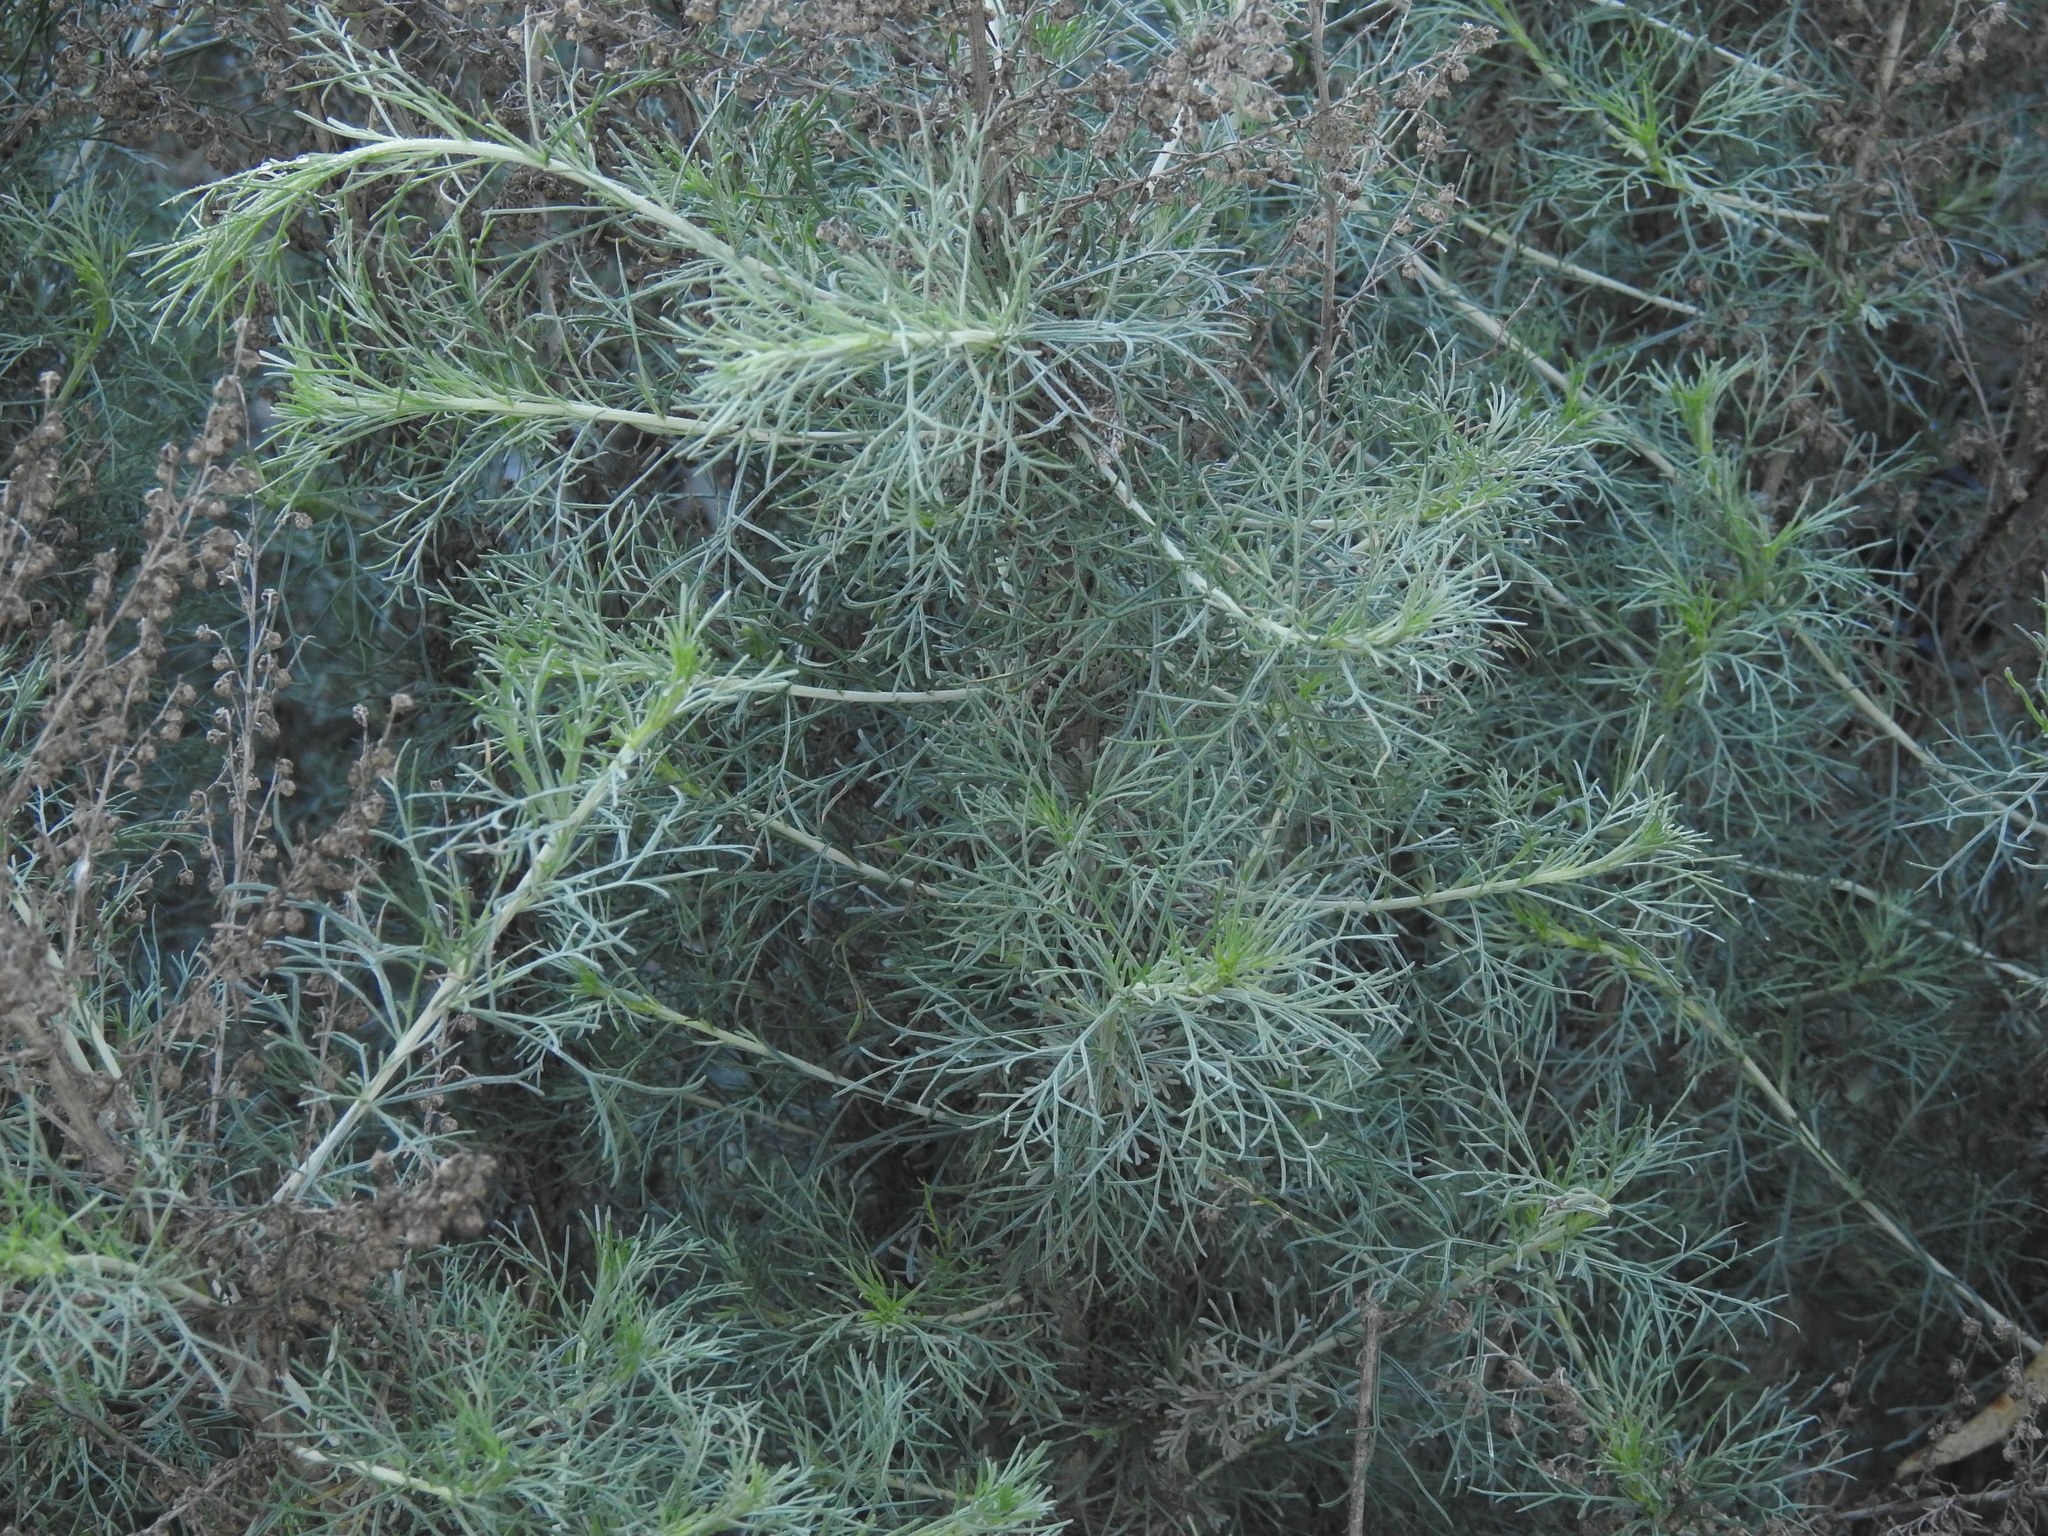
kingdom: Plantae
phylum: Tracheophyta
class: Magnoliopsida
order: Asterales
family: Asteraceae
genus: Artemisia
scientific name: Artemisia californica
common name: California sagebrush
